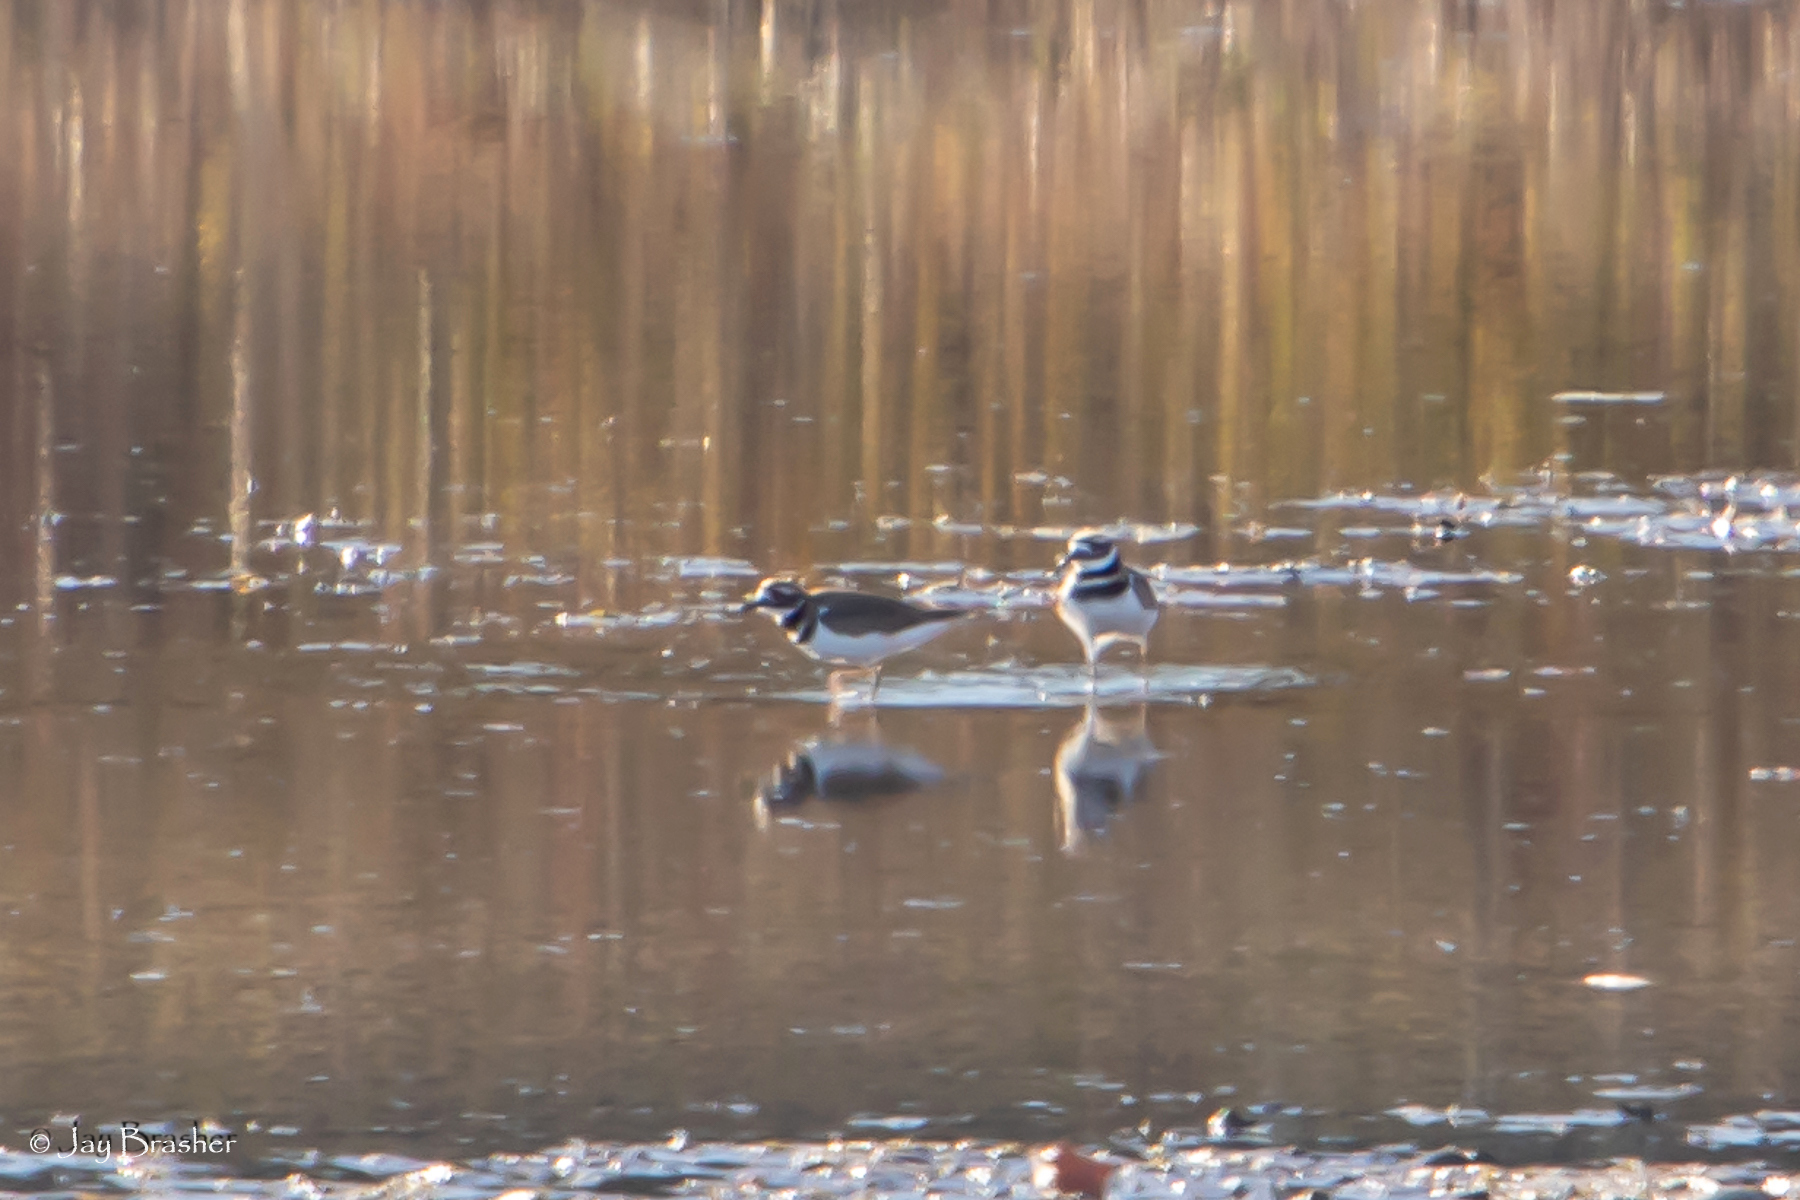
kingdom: Animalia
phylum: Chordata
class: Aves
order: Charadriiformes
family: Charadriidae
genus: Charadrius
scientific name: Charadrius vociferus
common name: Killdeer
